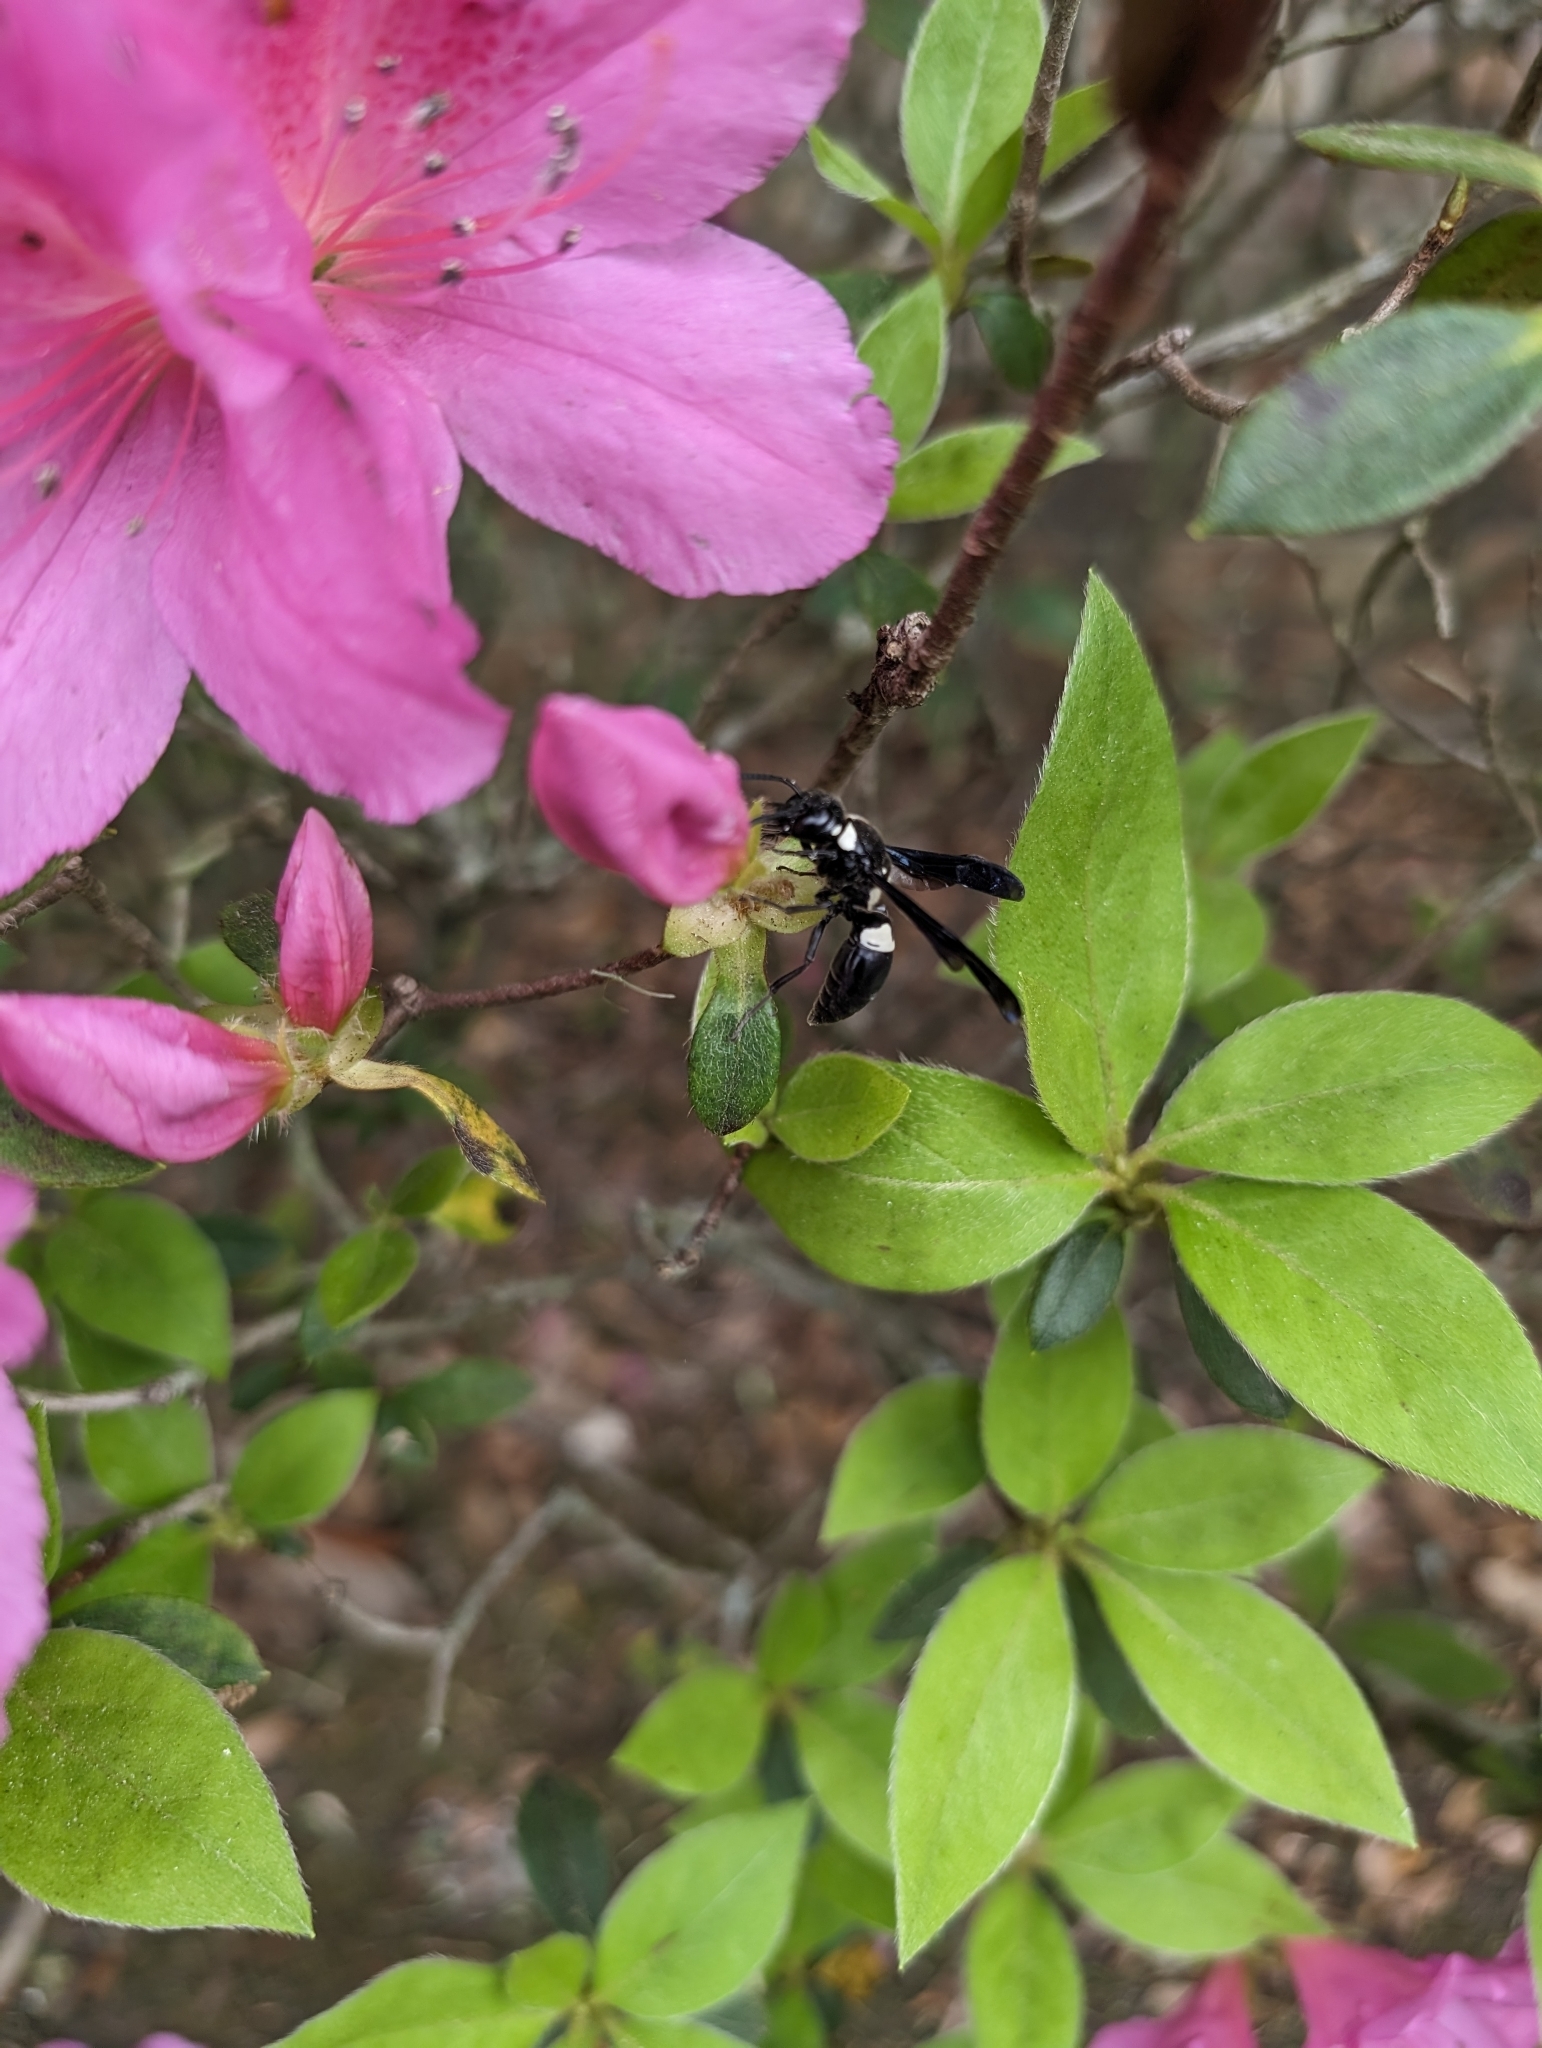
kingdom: Animalia
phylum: Arthropoda
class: Insecta
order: Hymenoptera
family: Eumenidae
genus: Euodynerus
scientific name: Euodynerus bidens
